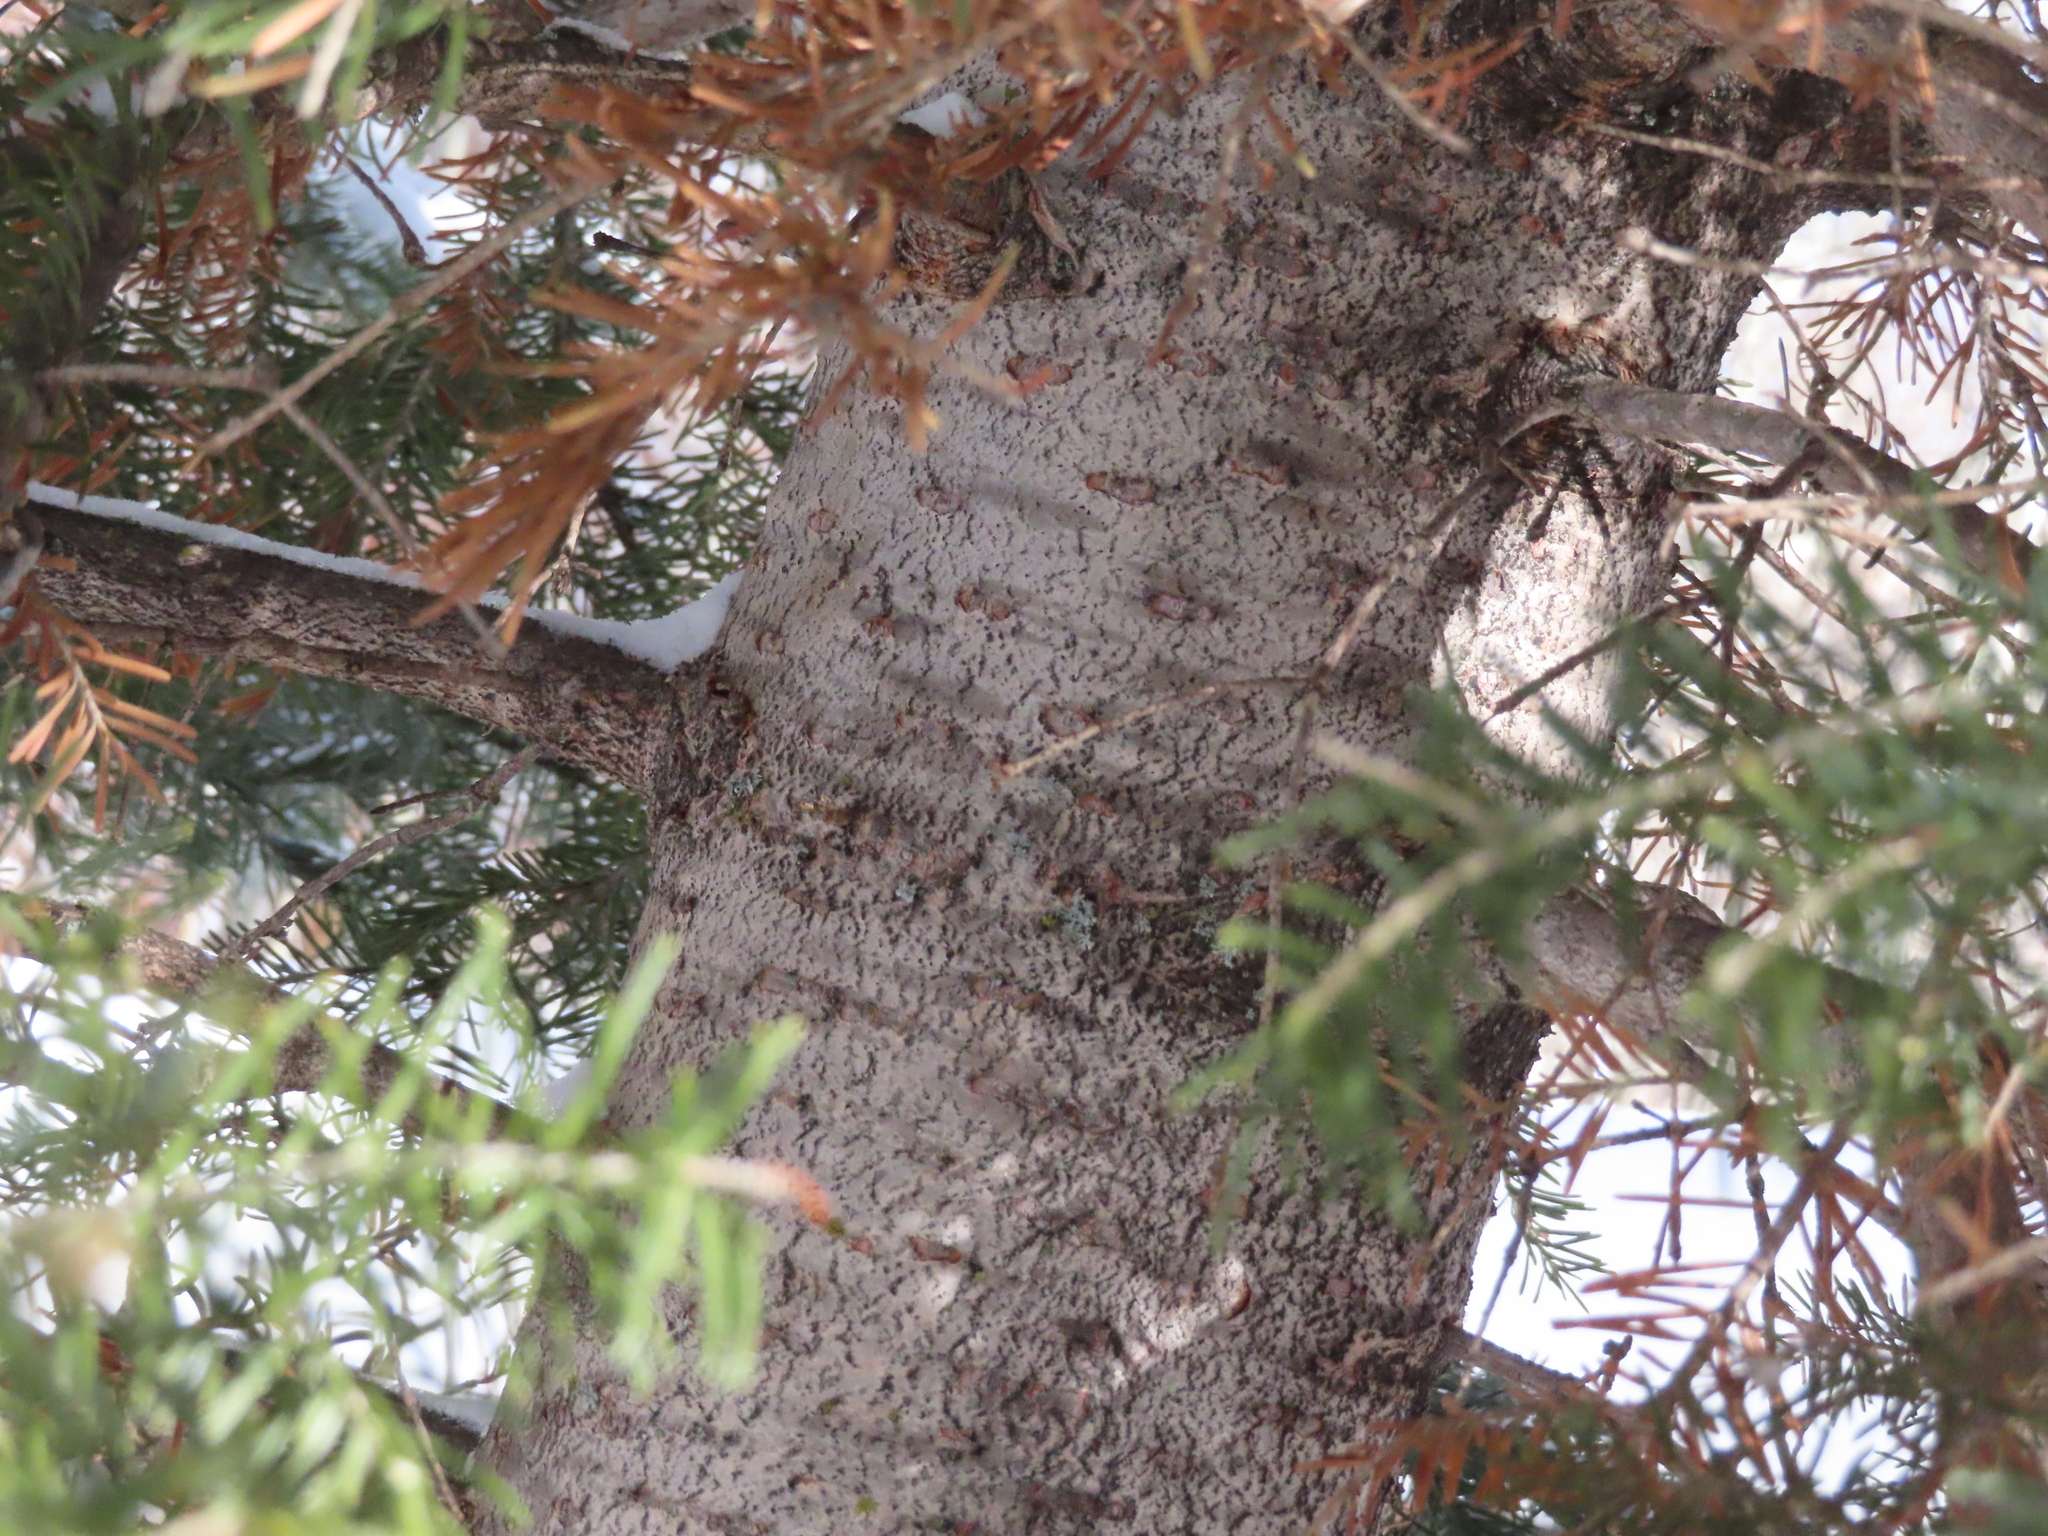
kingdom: Plantae
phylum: Tracheophyta
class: Pinopsida
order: Pinales
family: Pinaceae
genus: Abies
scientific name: Abies lasiocarpa
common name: Subalpine fir
